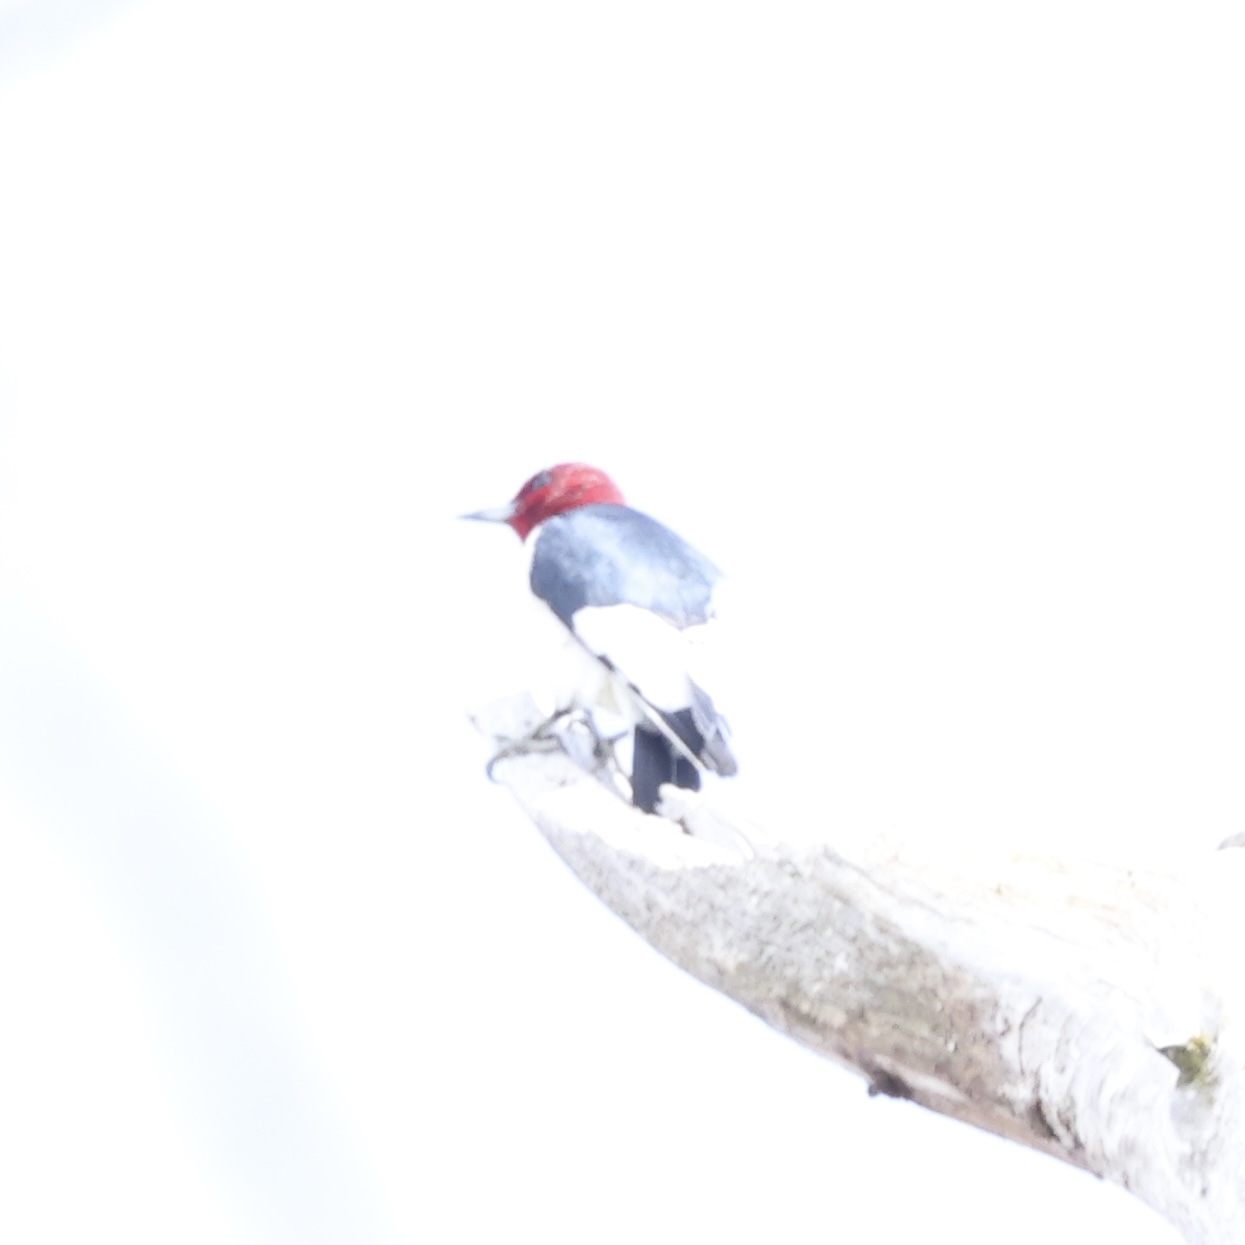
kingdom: Animalia
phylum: Chordata
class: Aves
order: Piciformes
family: Picidae
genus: Melanerpes
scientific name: Melanerpes erythrocephalus
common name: Red-headed woodpecker
